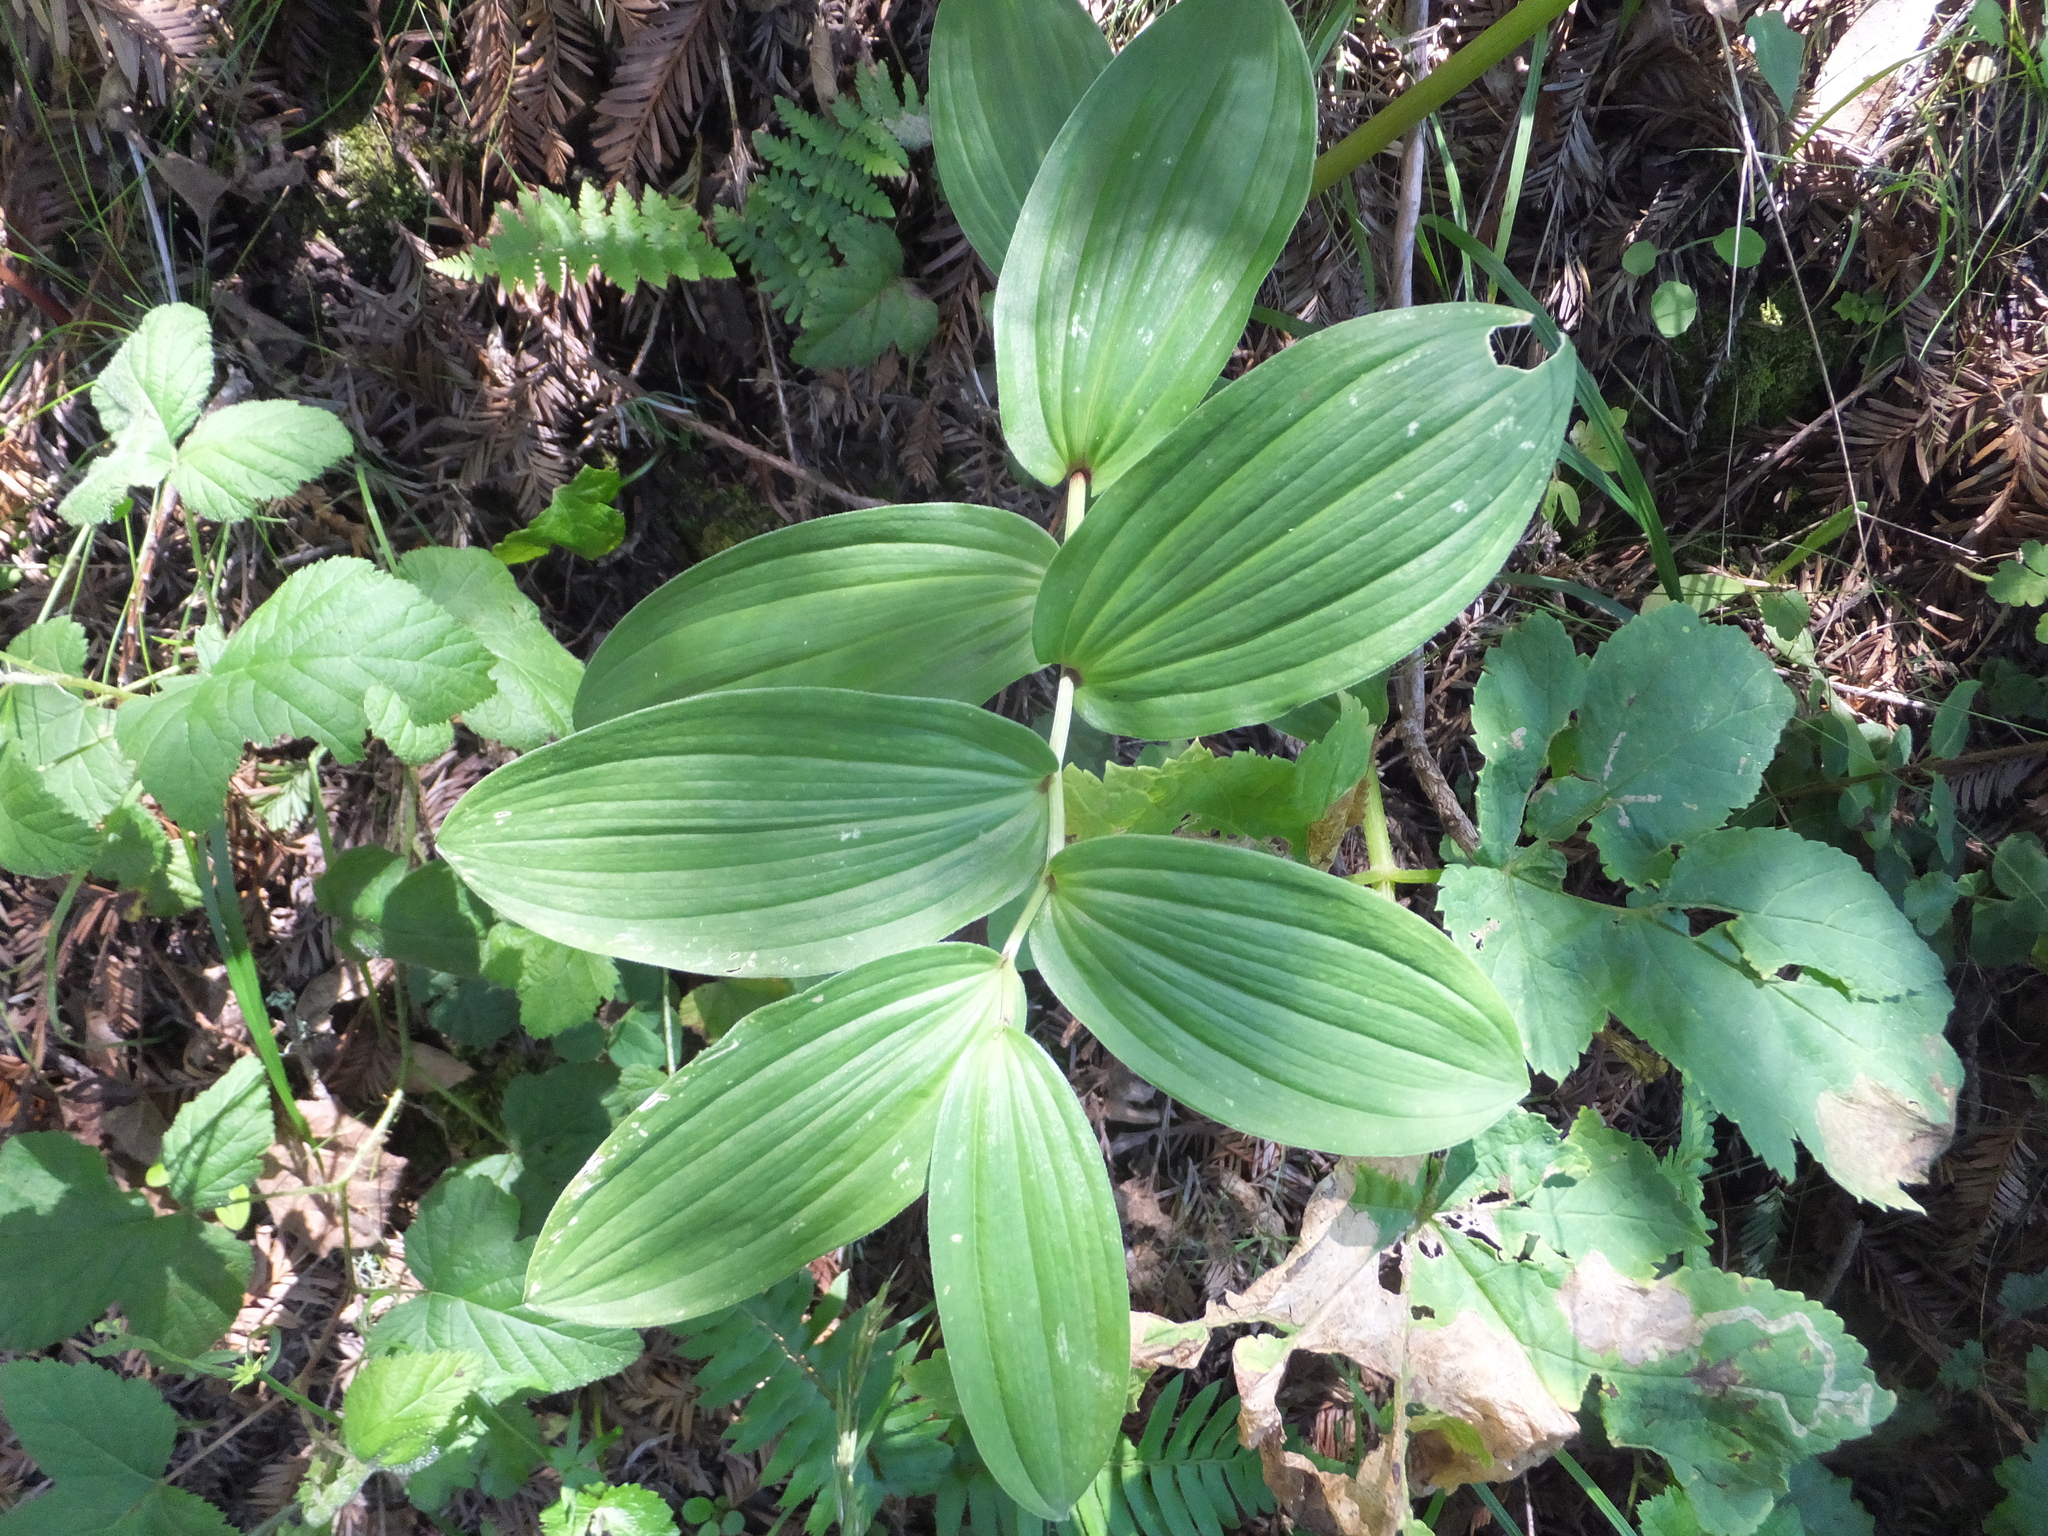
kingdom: Plantae
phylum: Tracheophyta
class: Liliopsida
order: Asparagales
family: Asparagaceae
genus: Maianthemum
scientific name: Maianthemum racemosum
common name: False spikenard
